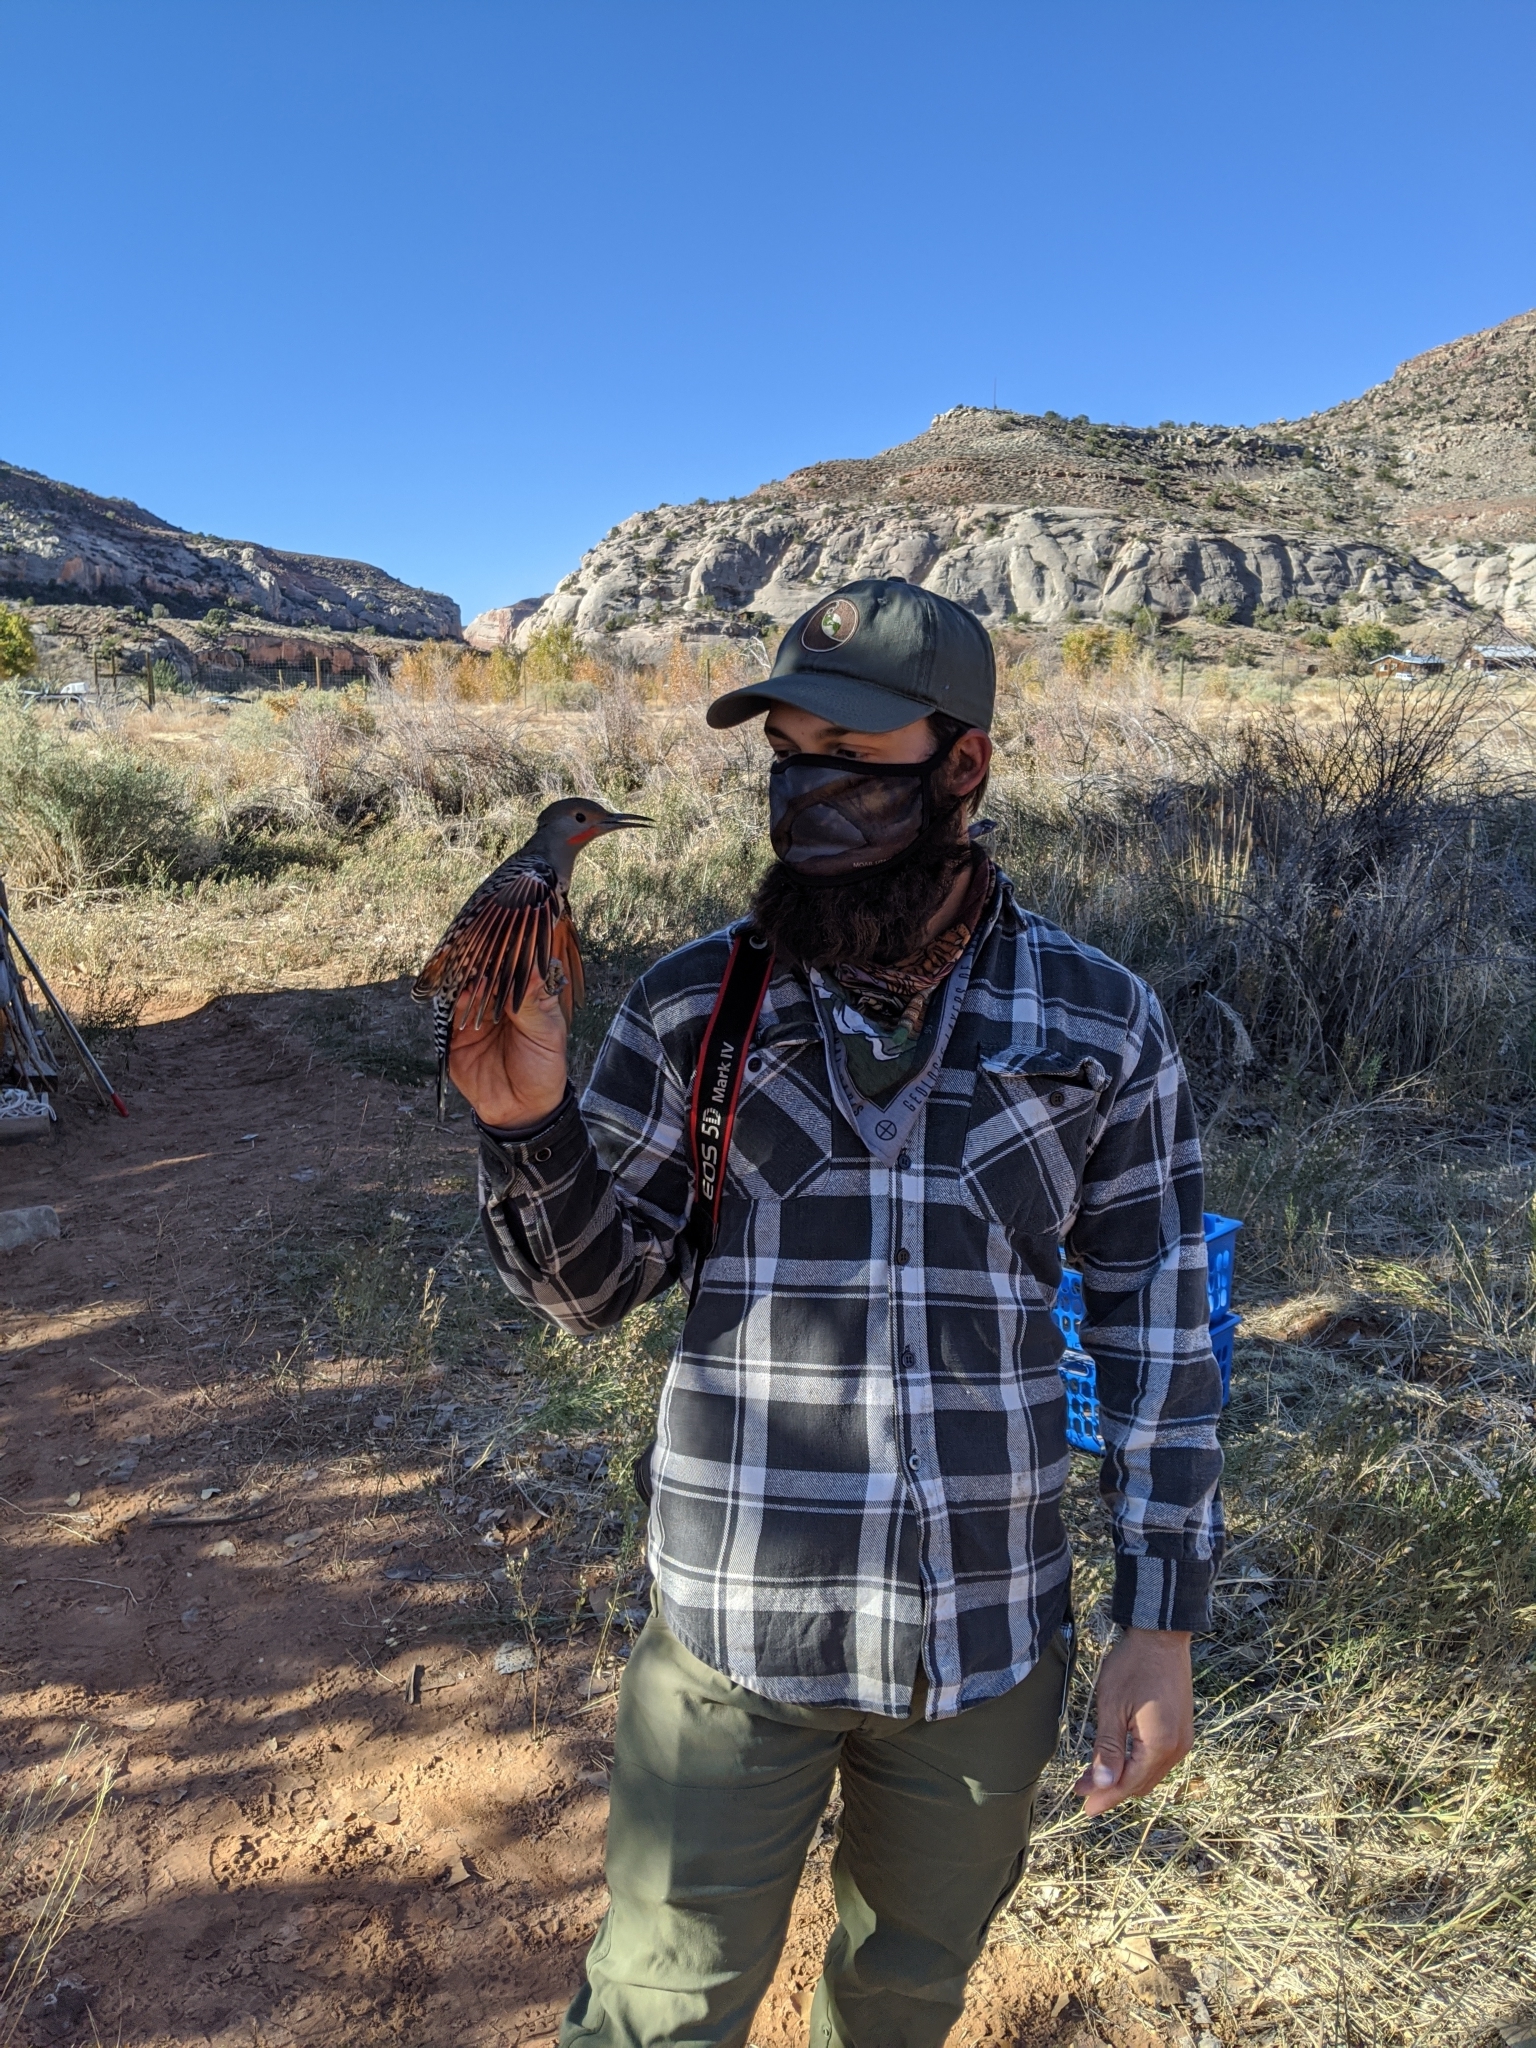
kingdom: Animalia
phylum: Chordata
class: Aves
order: Piciformes
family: Picidae
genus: Colaptes
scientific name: Colaptes auratus
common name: Northern flicker
